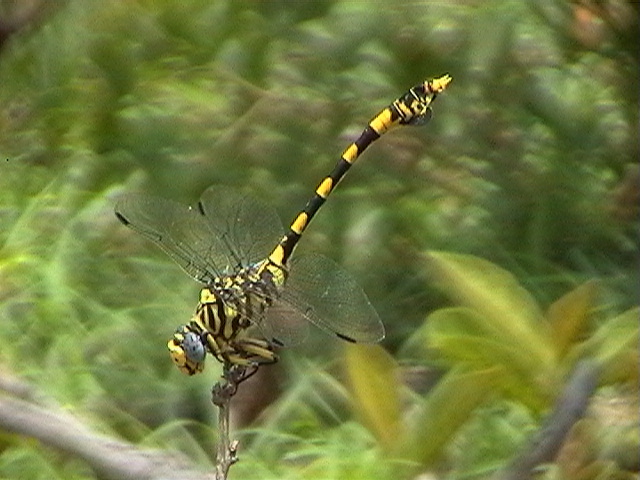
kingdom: Animalia
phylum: Arthropoda
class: Insecta
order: Odonata
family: Gomphidae
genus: Ictinogomphus
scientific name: Ictinogomphus ferox
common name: Common tiger
